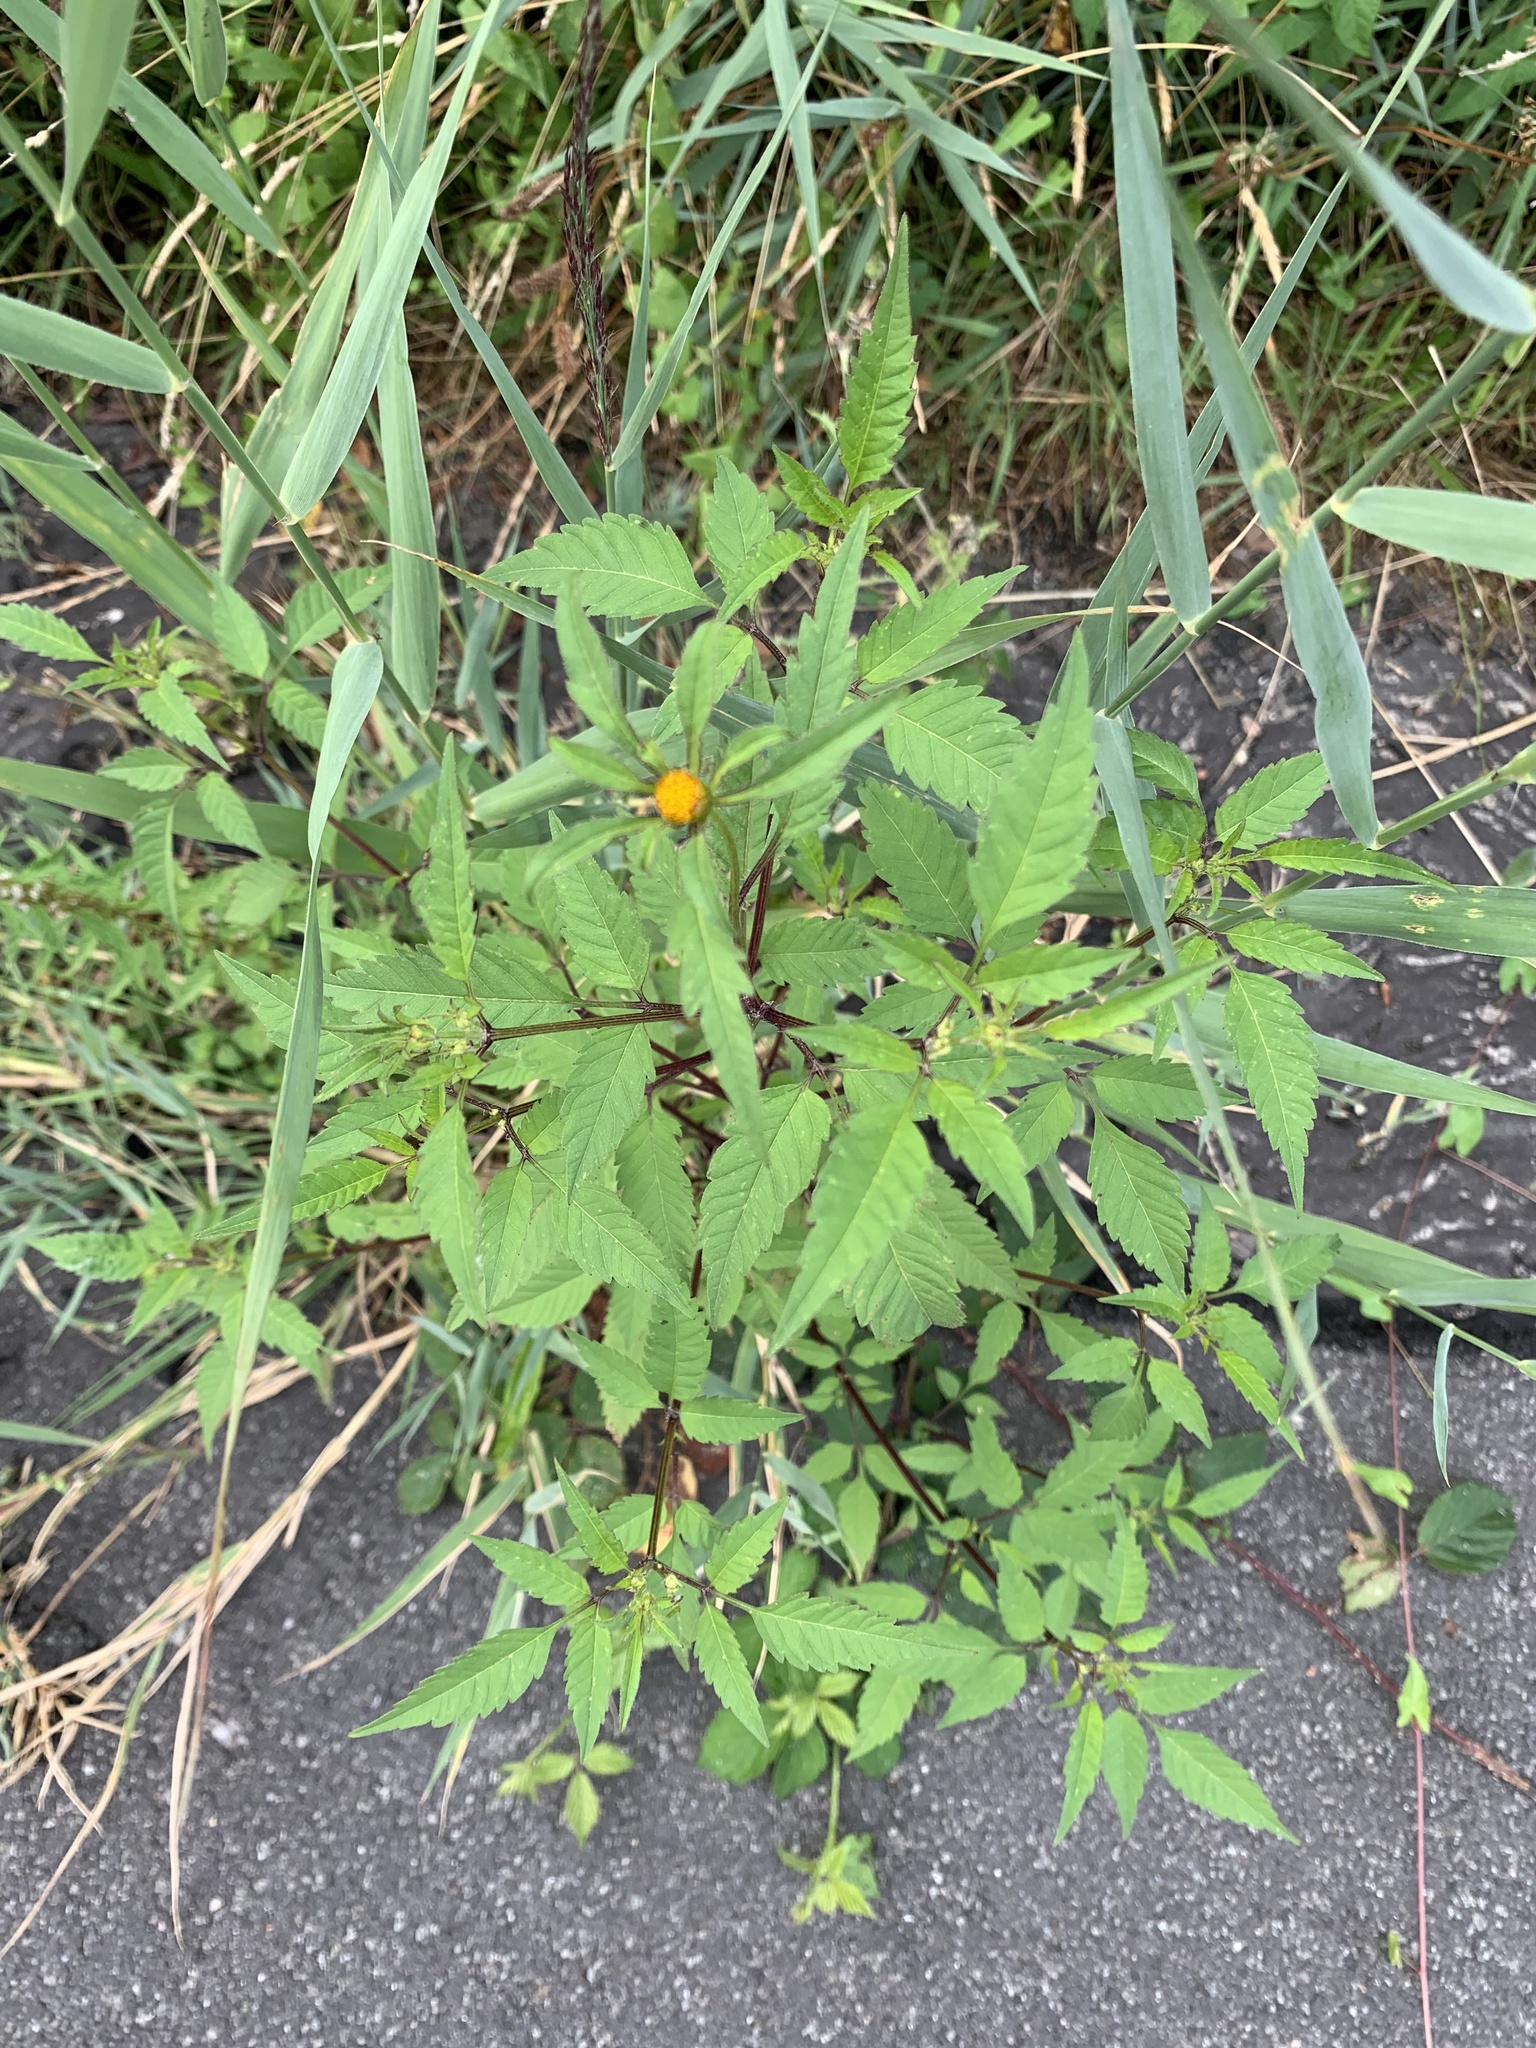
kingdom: Plantae
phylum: Tracheophyta
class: Magnoliopsida
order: Asterales
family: Asteraceae
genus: Bidens
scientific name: Bidens frondosa
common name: Beggarticks
